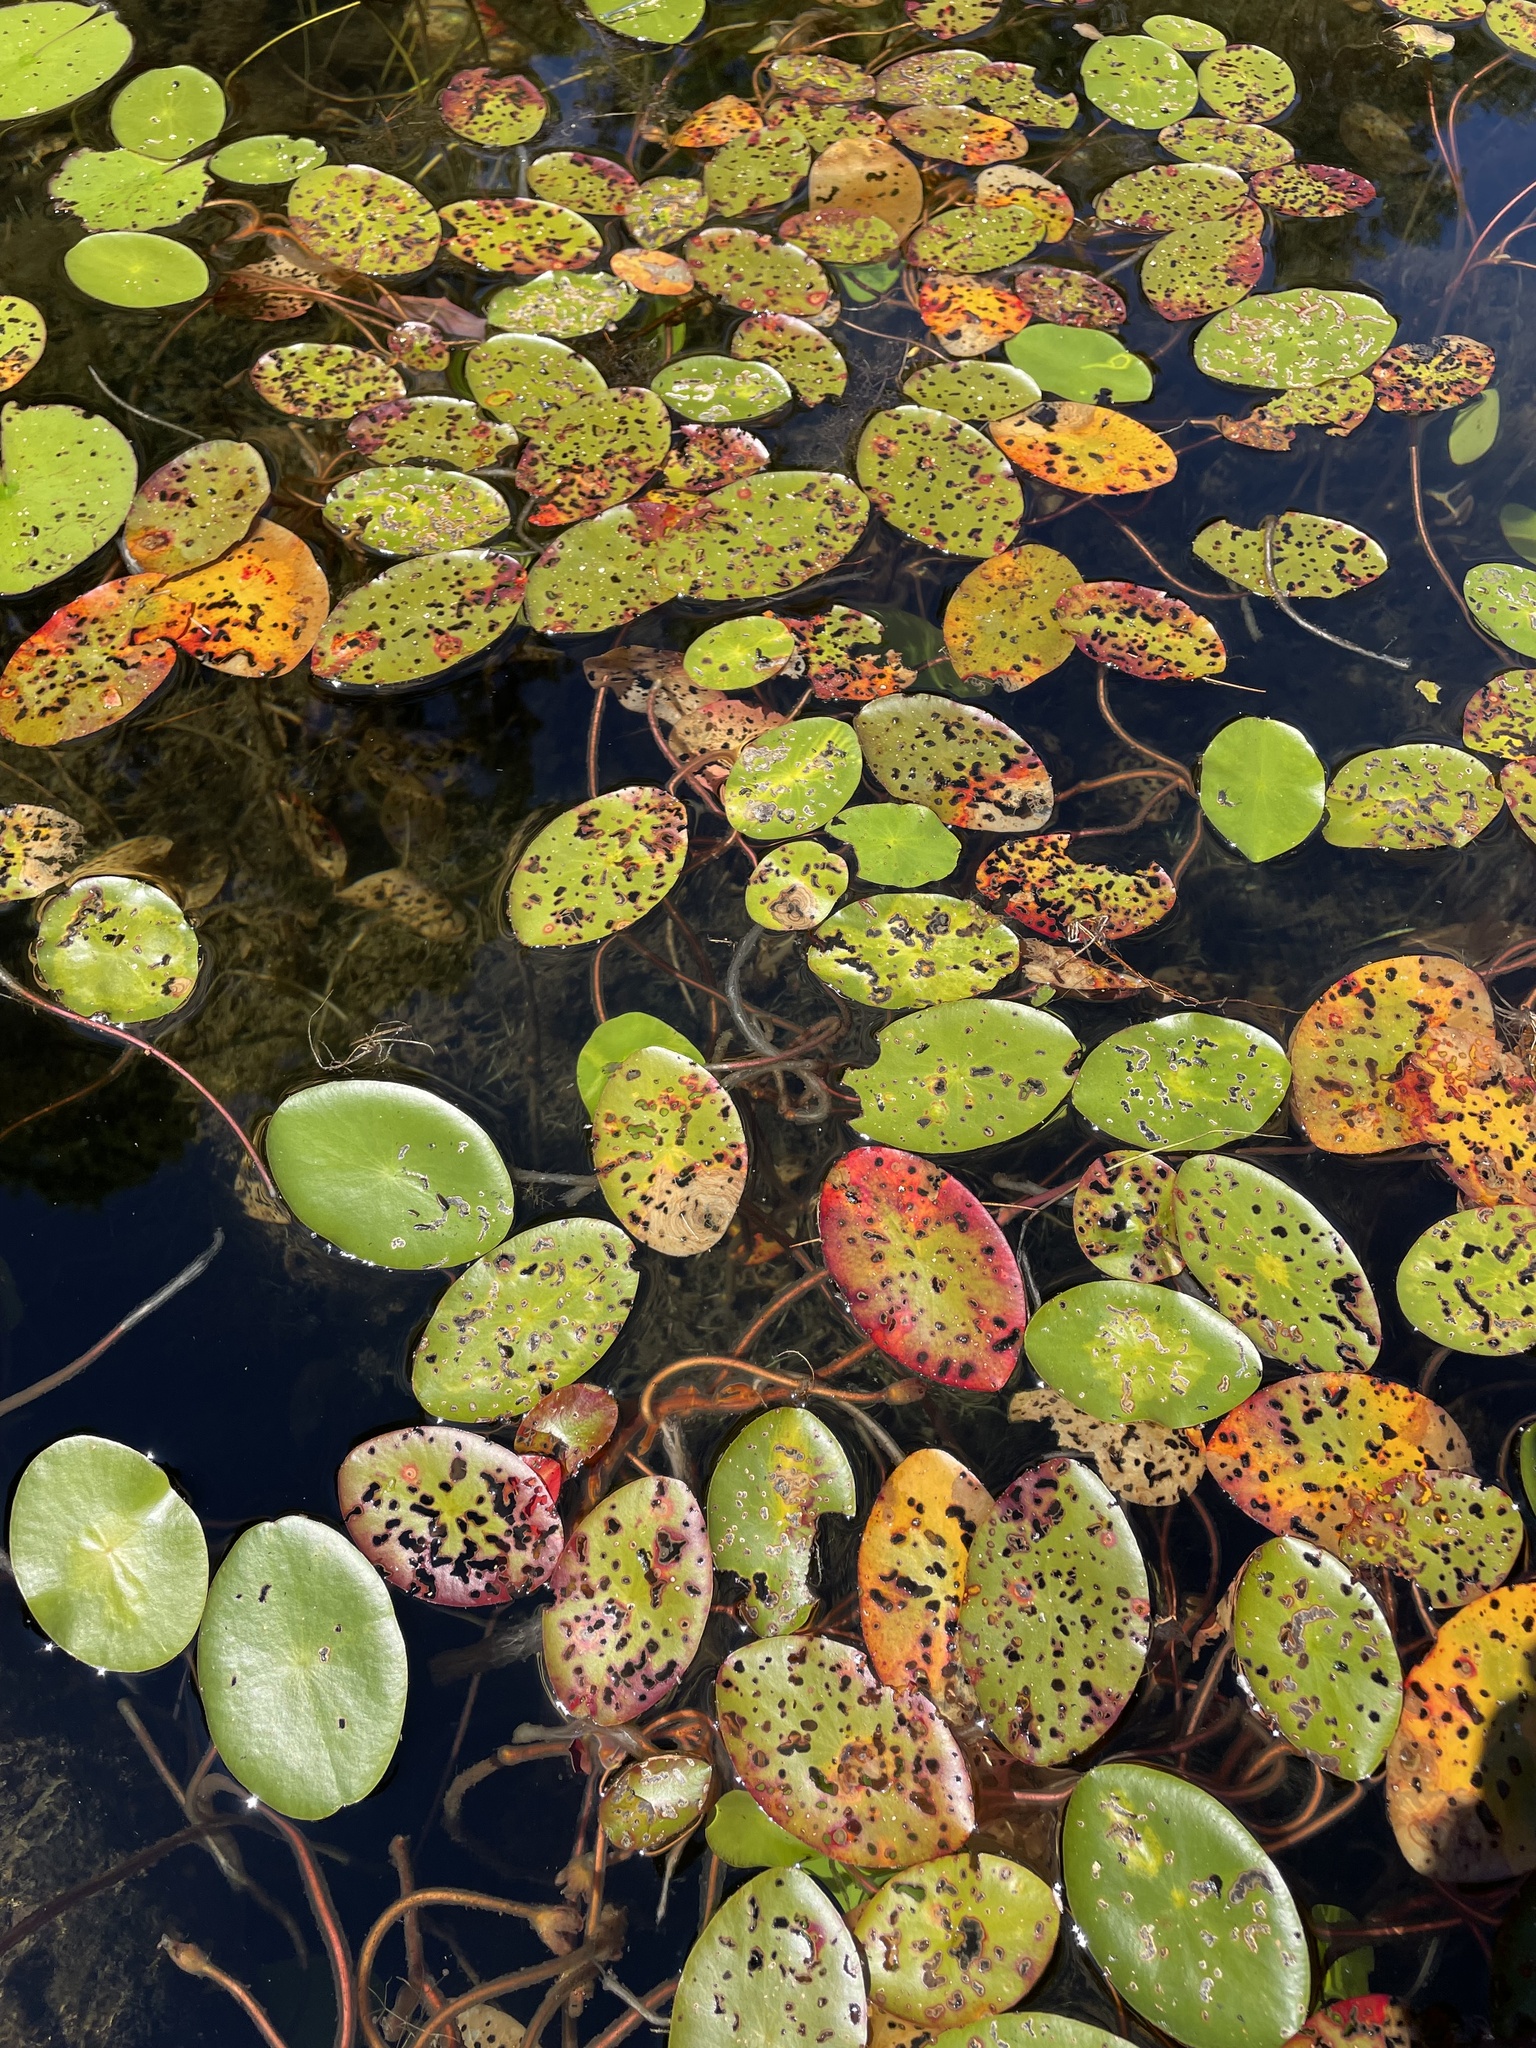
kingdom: Plantae
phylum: Tracheophyta
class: Magnoliopsida
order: Nymphaeales
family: Cabombaceae
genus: Brasenia
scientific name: Brasenia schreberi
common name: Water-shield
